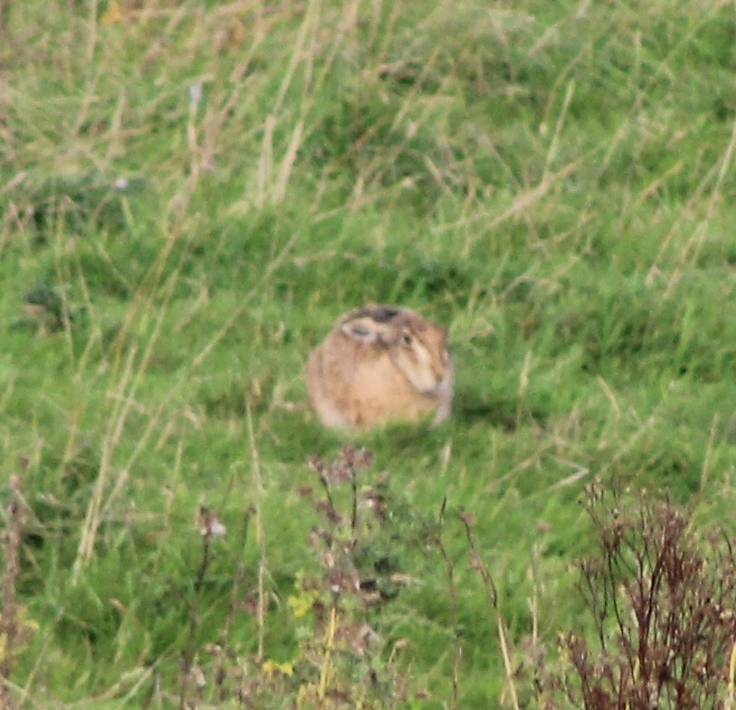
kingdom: Animalia
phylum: Chordata
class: Mammalia
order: Lagomorpha
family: Leporidae
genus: Lepus
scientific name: Lepus europaeus
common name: European hare
